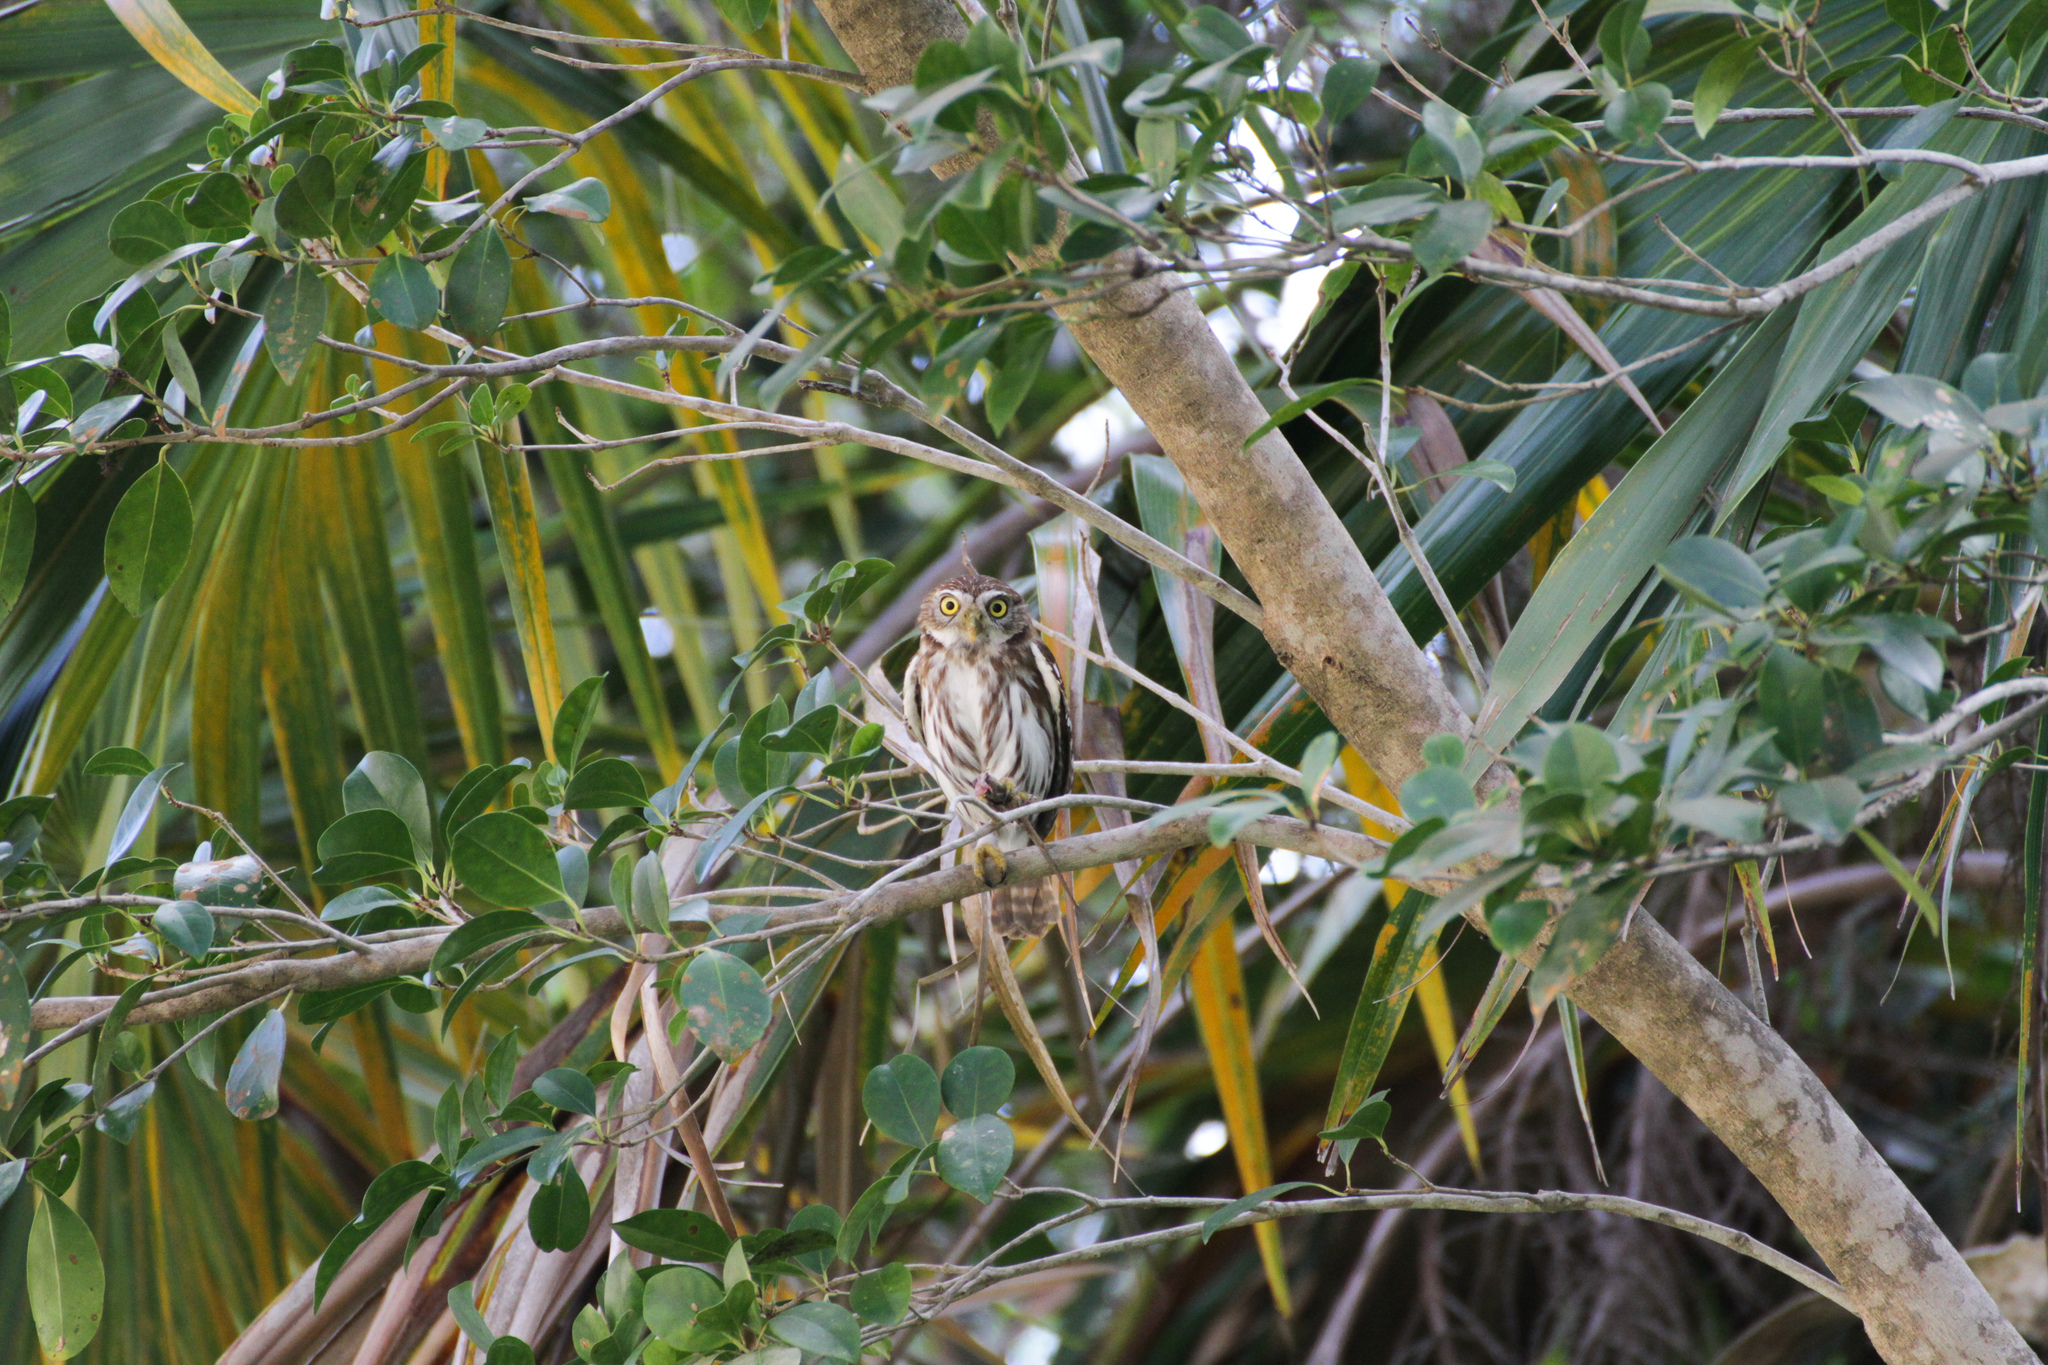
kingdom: Animalia
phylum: Chordata
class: Aves
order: Strigiformes
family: Strigidae
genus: Glaucidium
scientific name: Glaucidium brasilianum
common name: Ferruginous pygmy-owl
